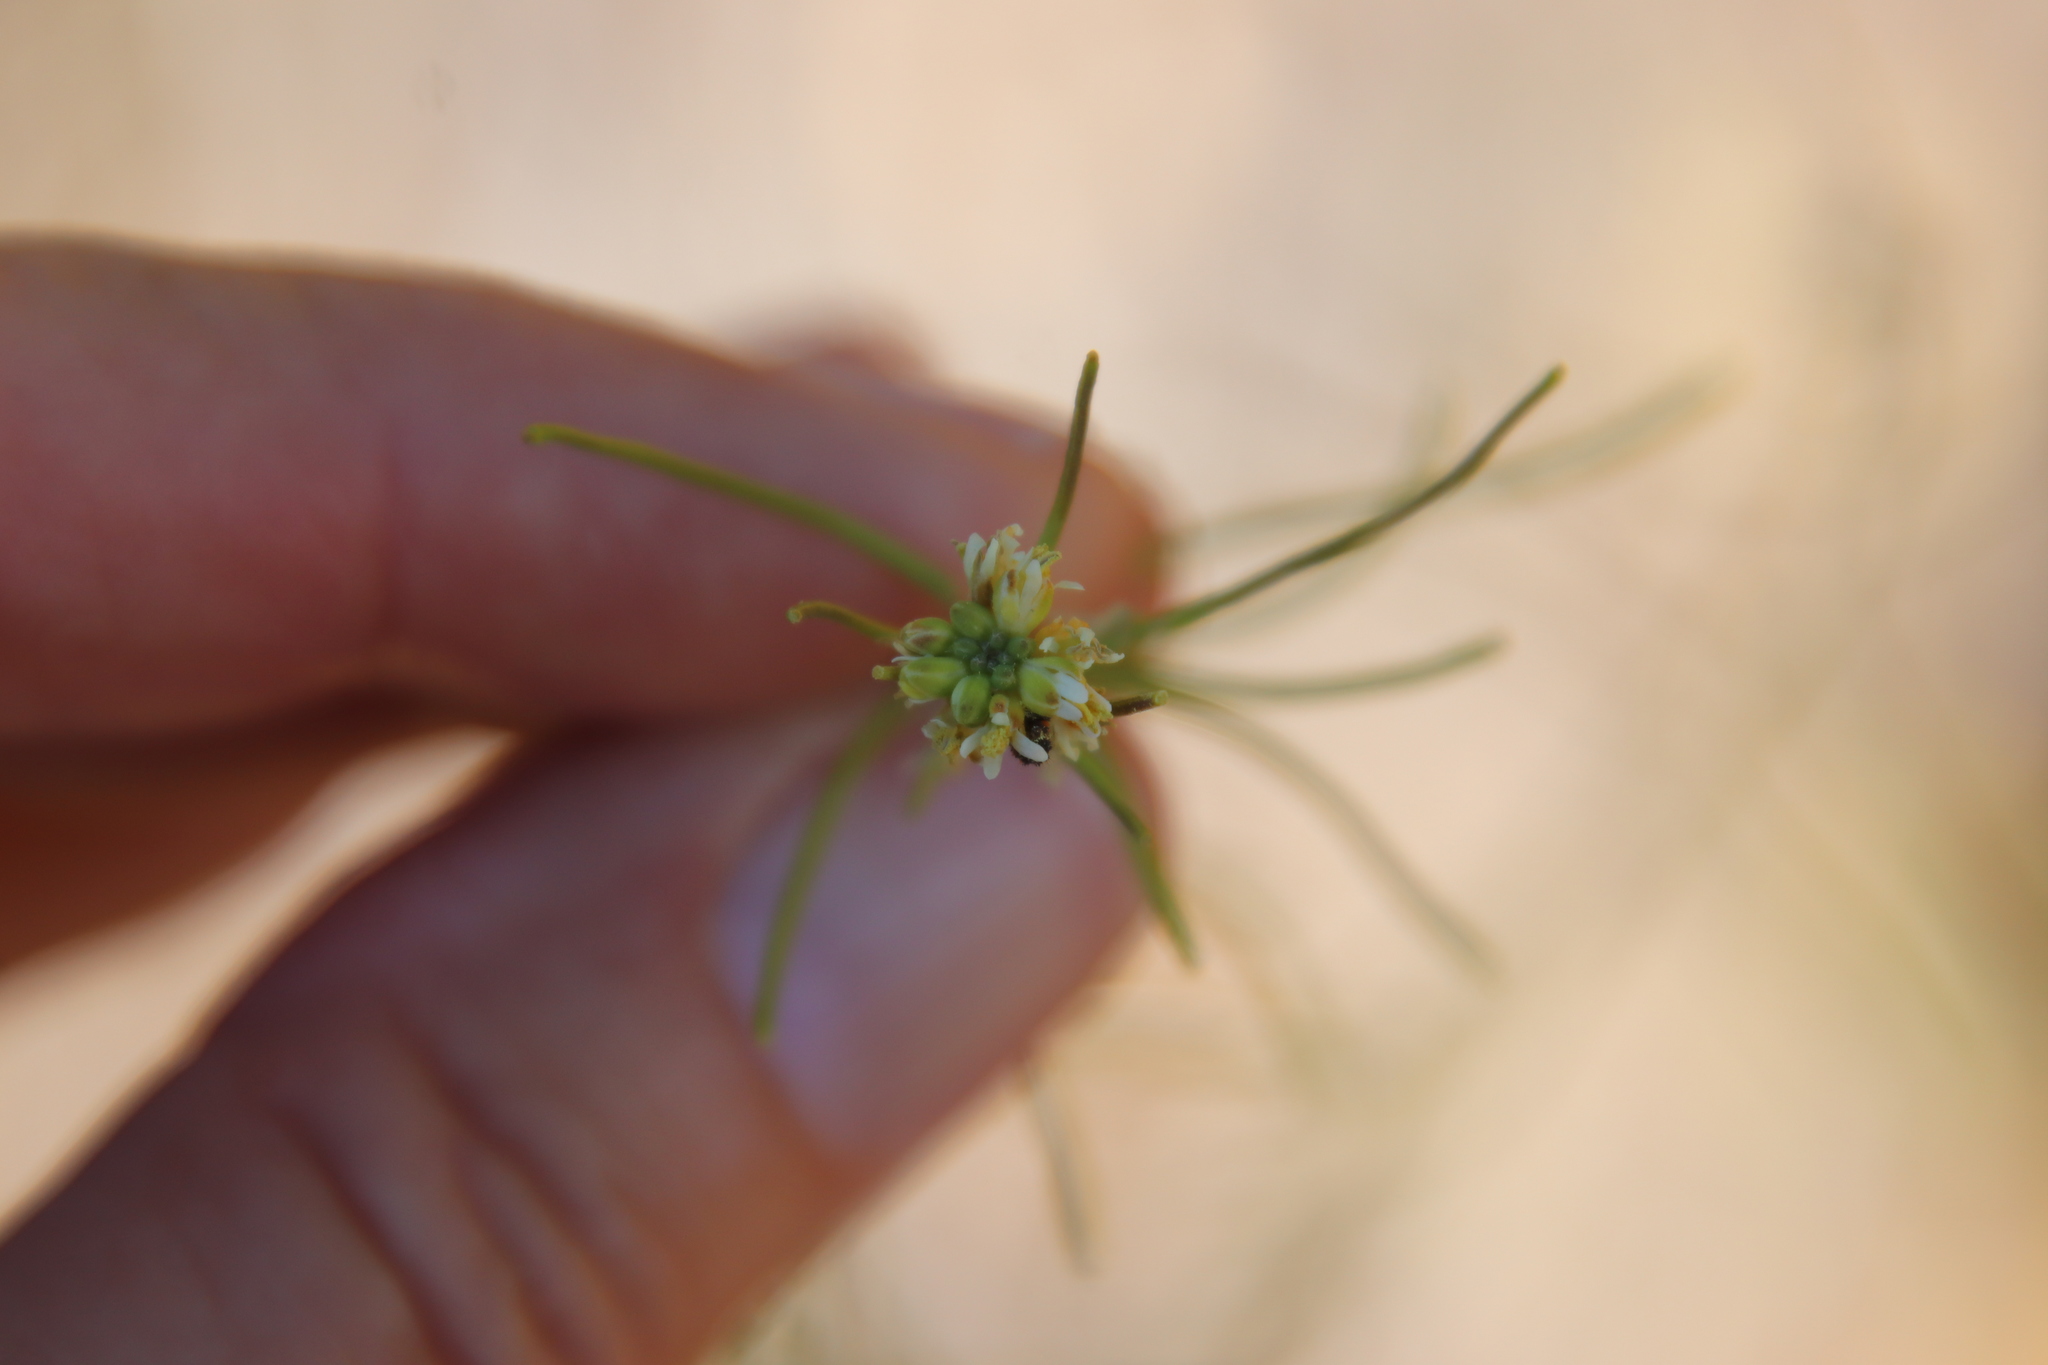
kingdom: Plantae
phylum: Tracheophyta
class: Magnoliopsida
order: Brassicales
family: Brassicaceae
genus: Streptanthus
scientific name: Streptanthus lasiophyllus
